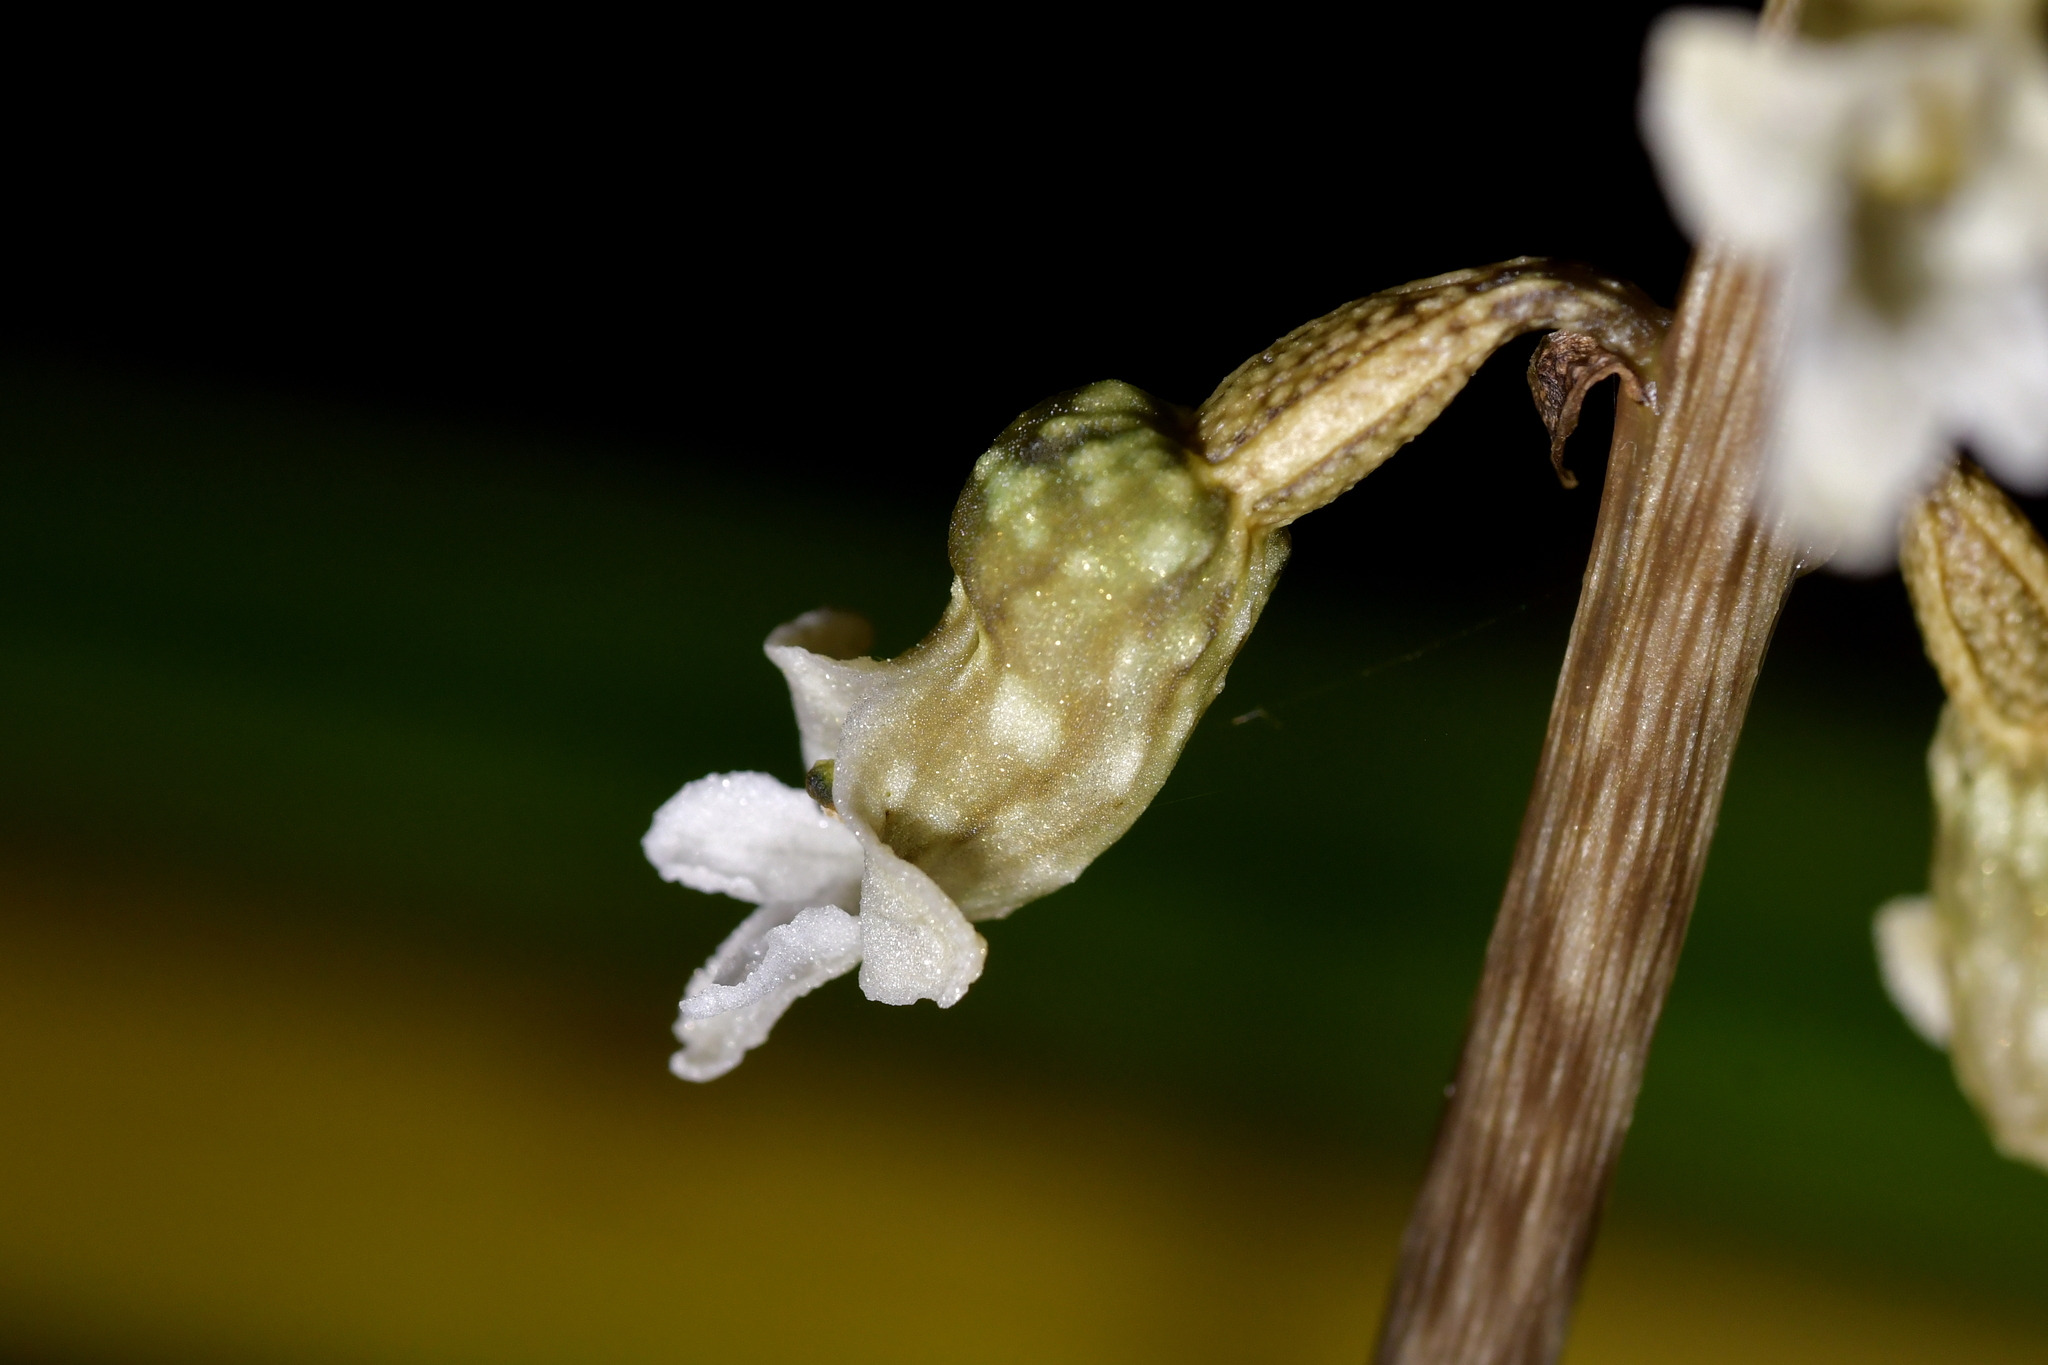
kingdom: Plantae
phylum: Tracheophyta
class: Liliopsida
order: Asparagales
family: Orchidaceae
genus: Gastrodia
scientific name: Gastrodia cunninghamii
